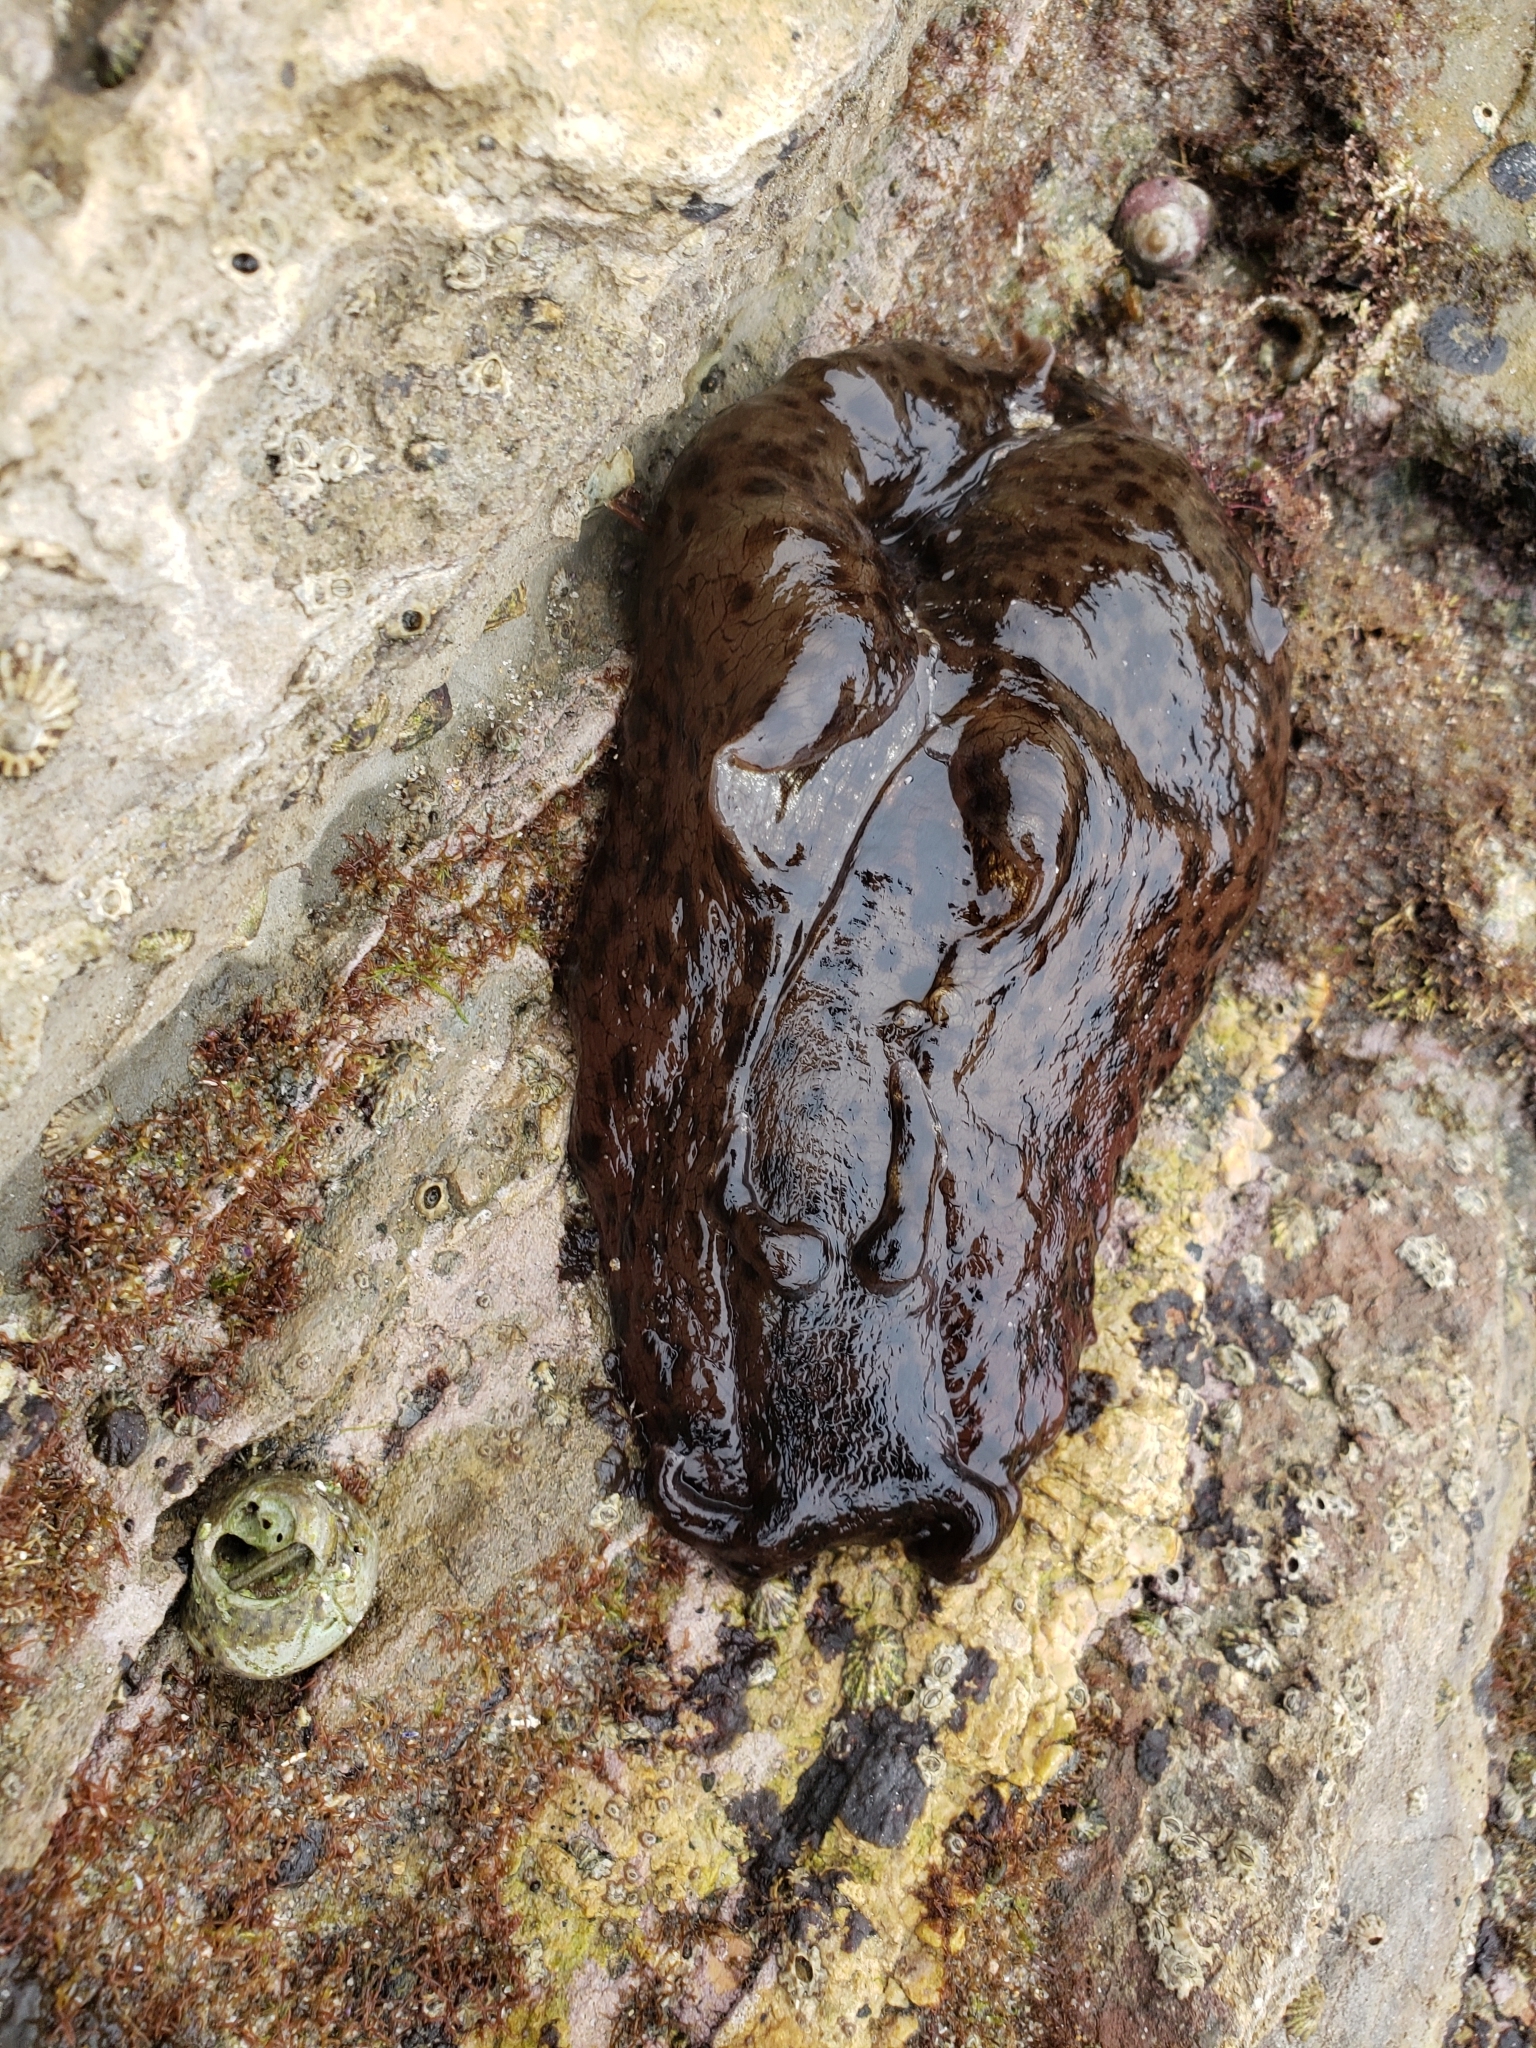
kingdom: Animalia
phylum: Mollusca
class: Gastropoda
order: Aplysiida
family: Aplysiidae
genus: Aplysia
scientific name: Aplysia californica
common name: California seahare
